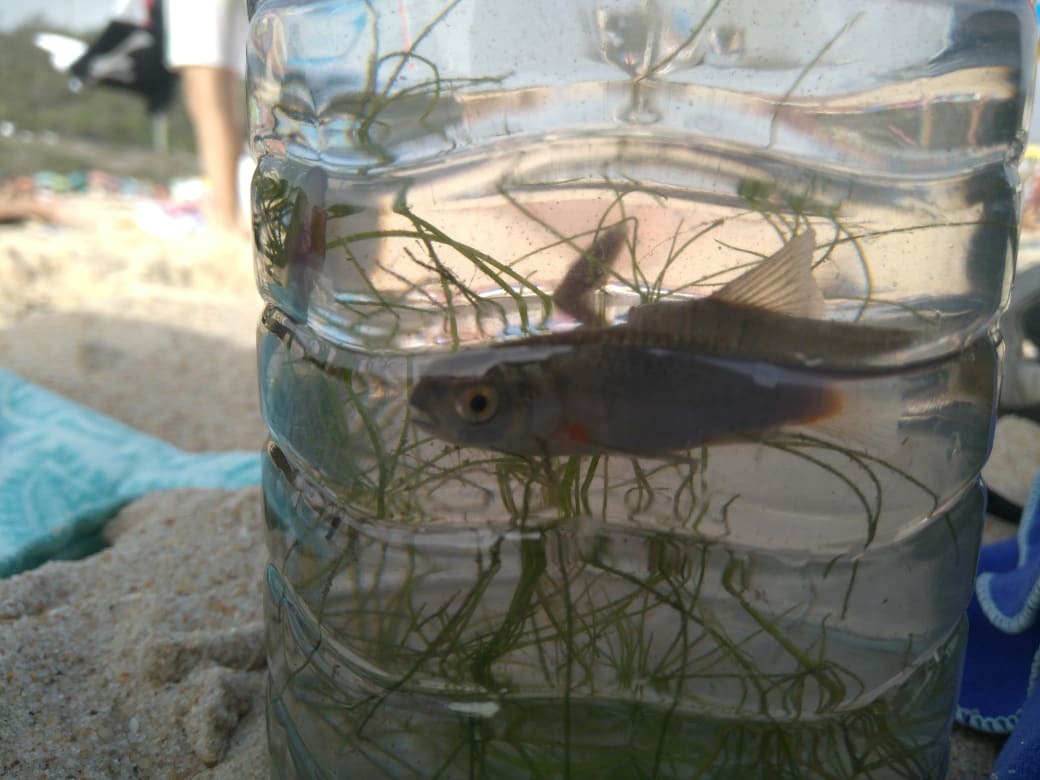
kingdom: Animalia
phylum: Chordata
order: Cypriniformes
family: Cyprinidae
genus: Achondrostoma
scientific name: Achondrostoma oligolepis
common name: Ruivaco
